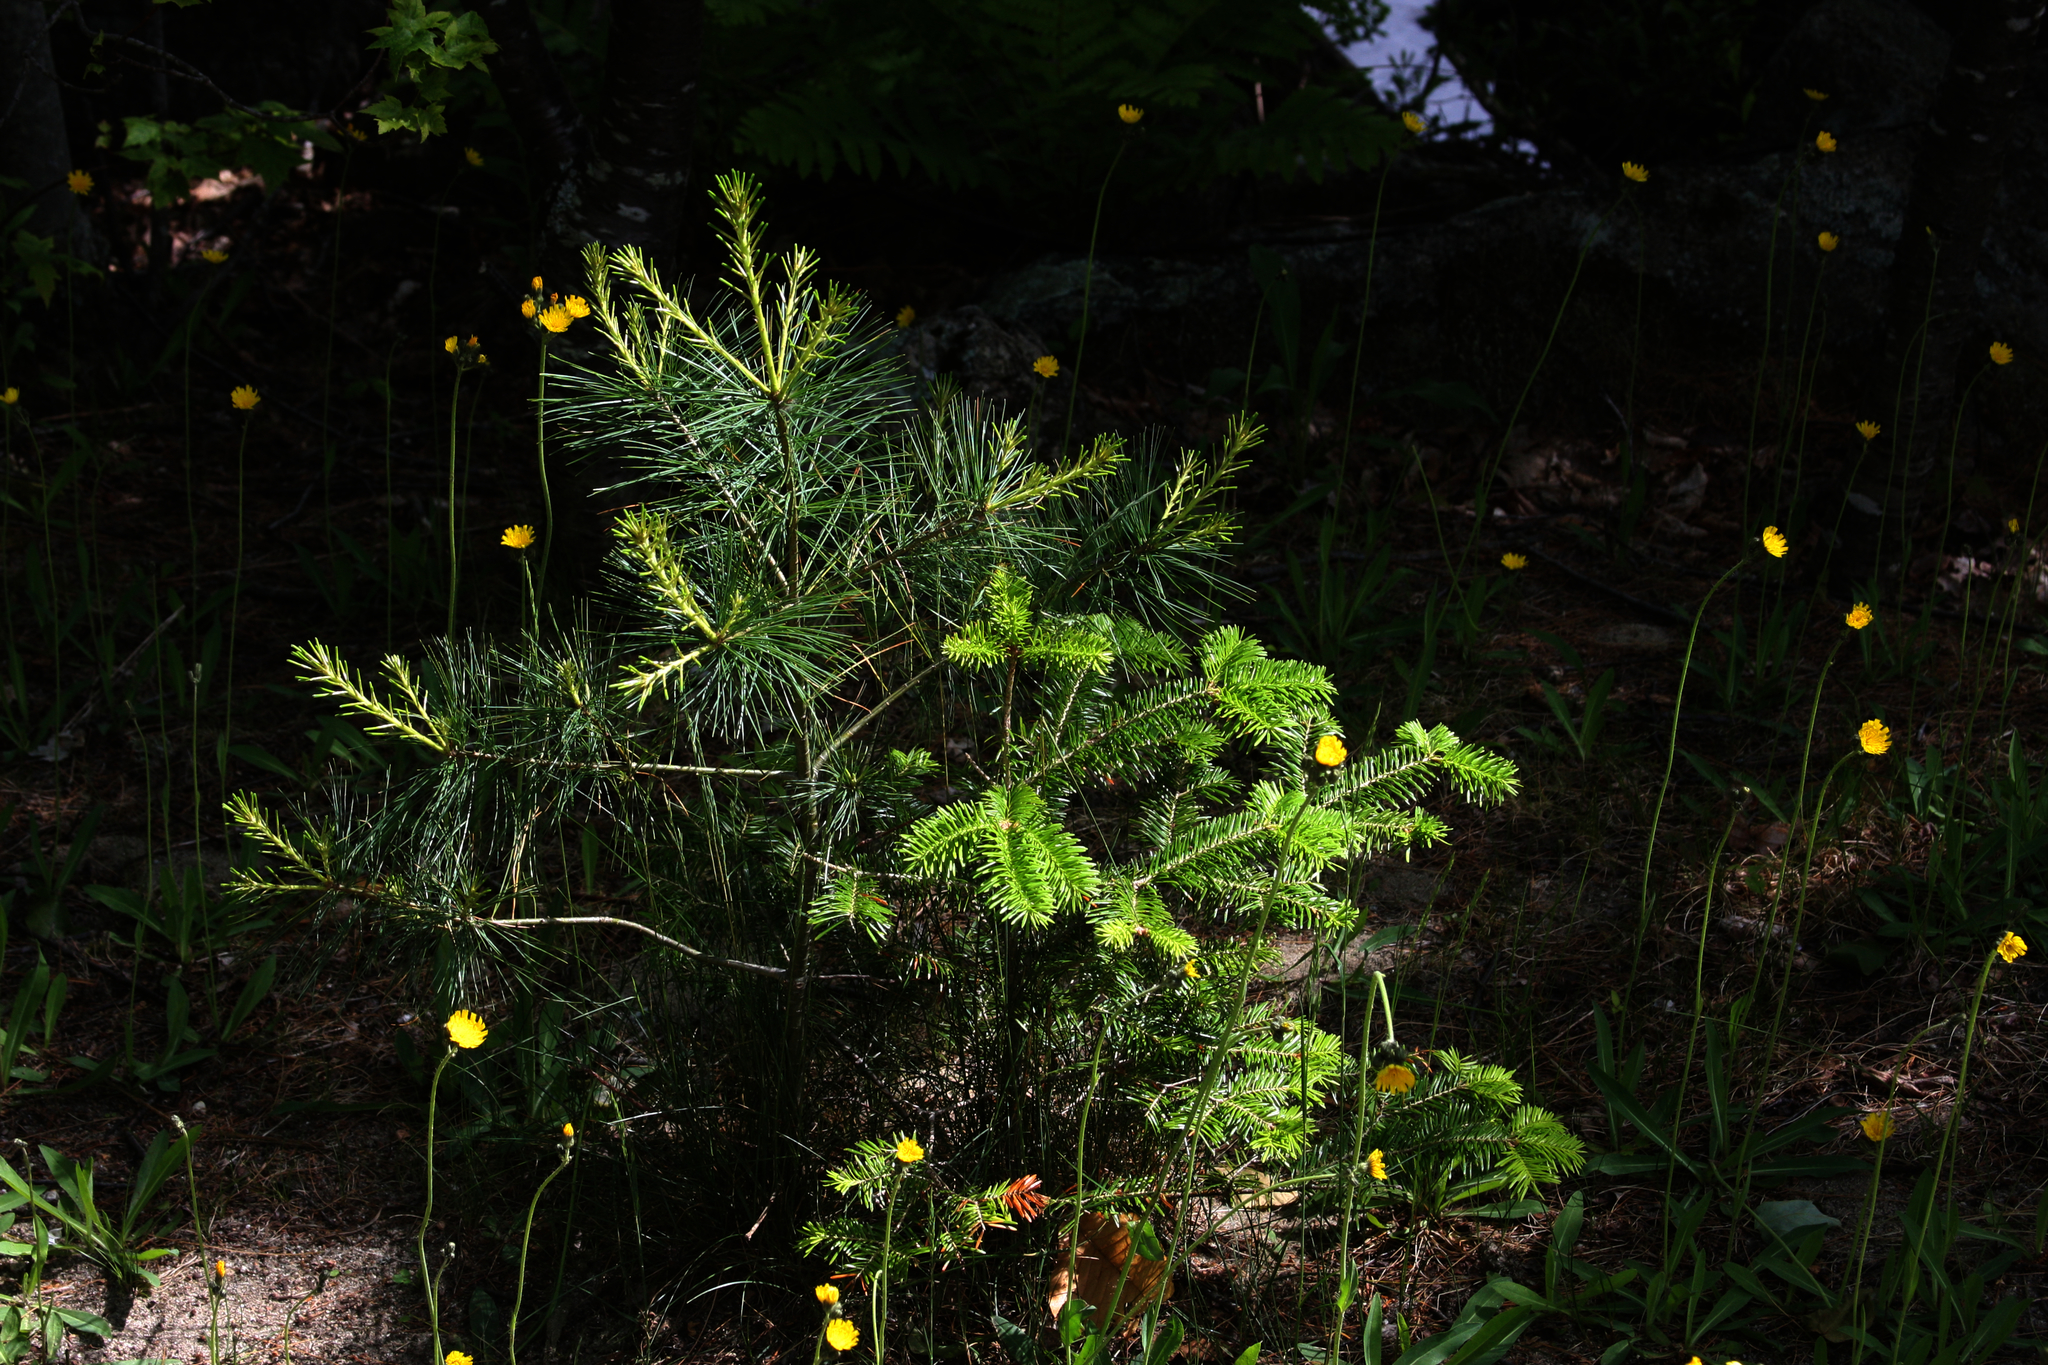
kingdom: Plantae
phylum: Tracheophyta
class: Pinopsida
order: Pinales
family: Pinaceae
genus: Pinus
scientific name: Pinus strobus
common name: Weymouth pine
